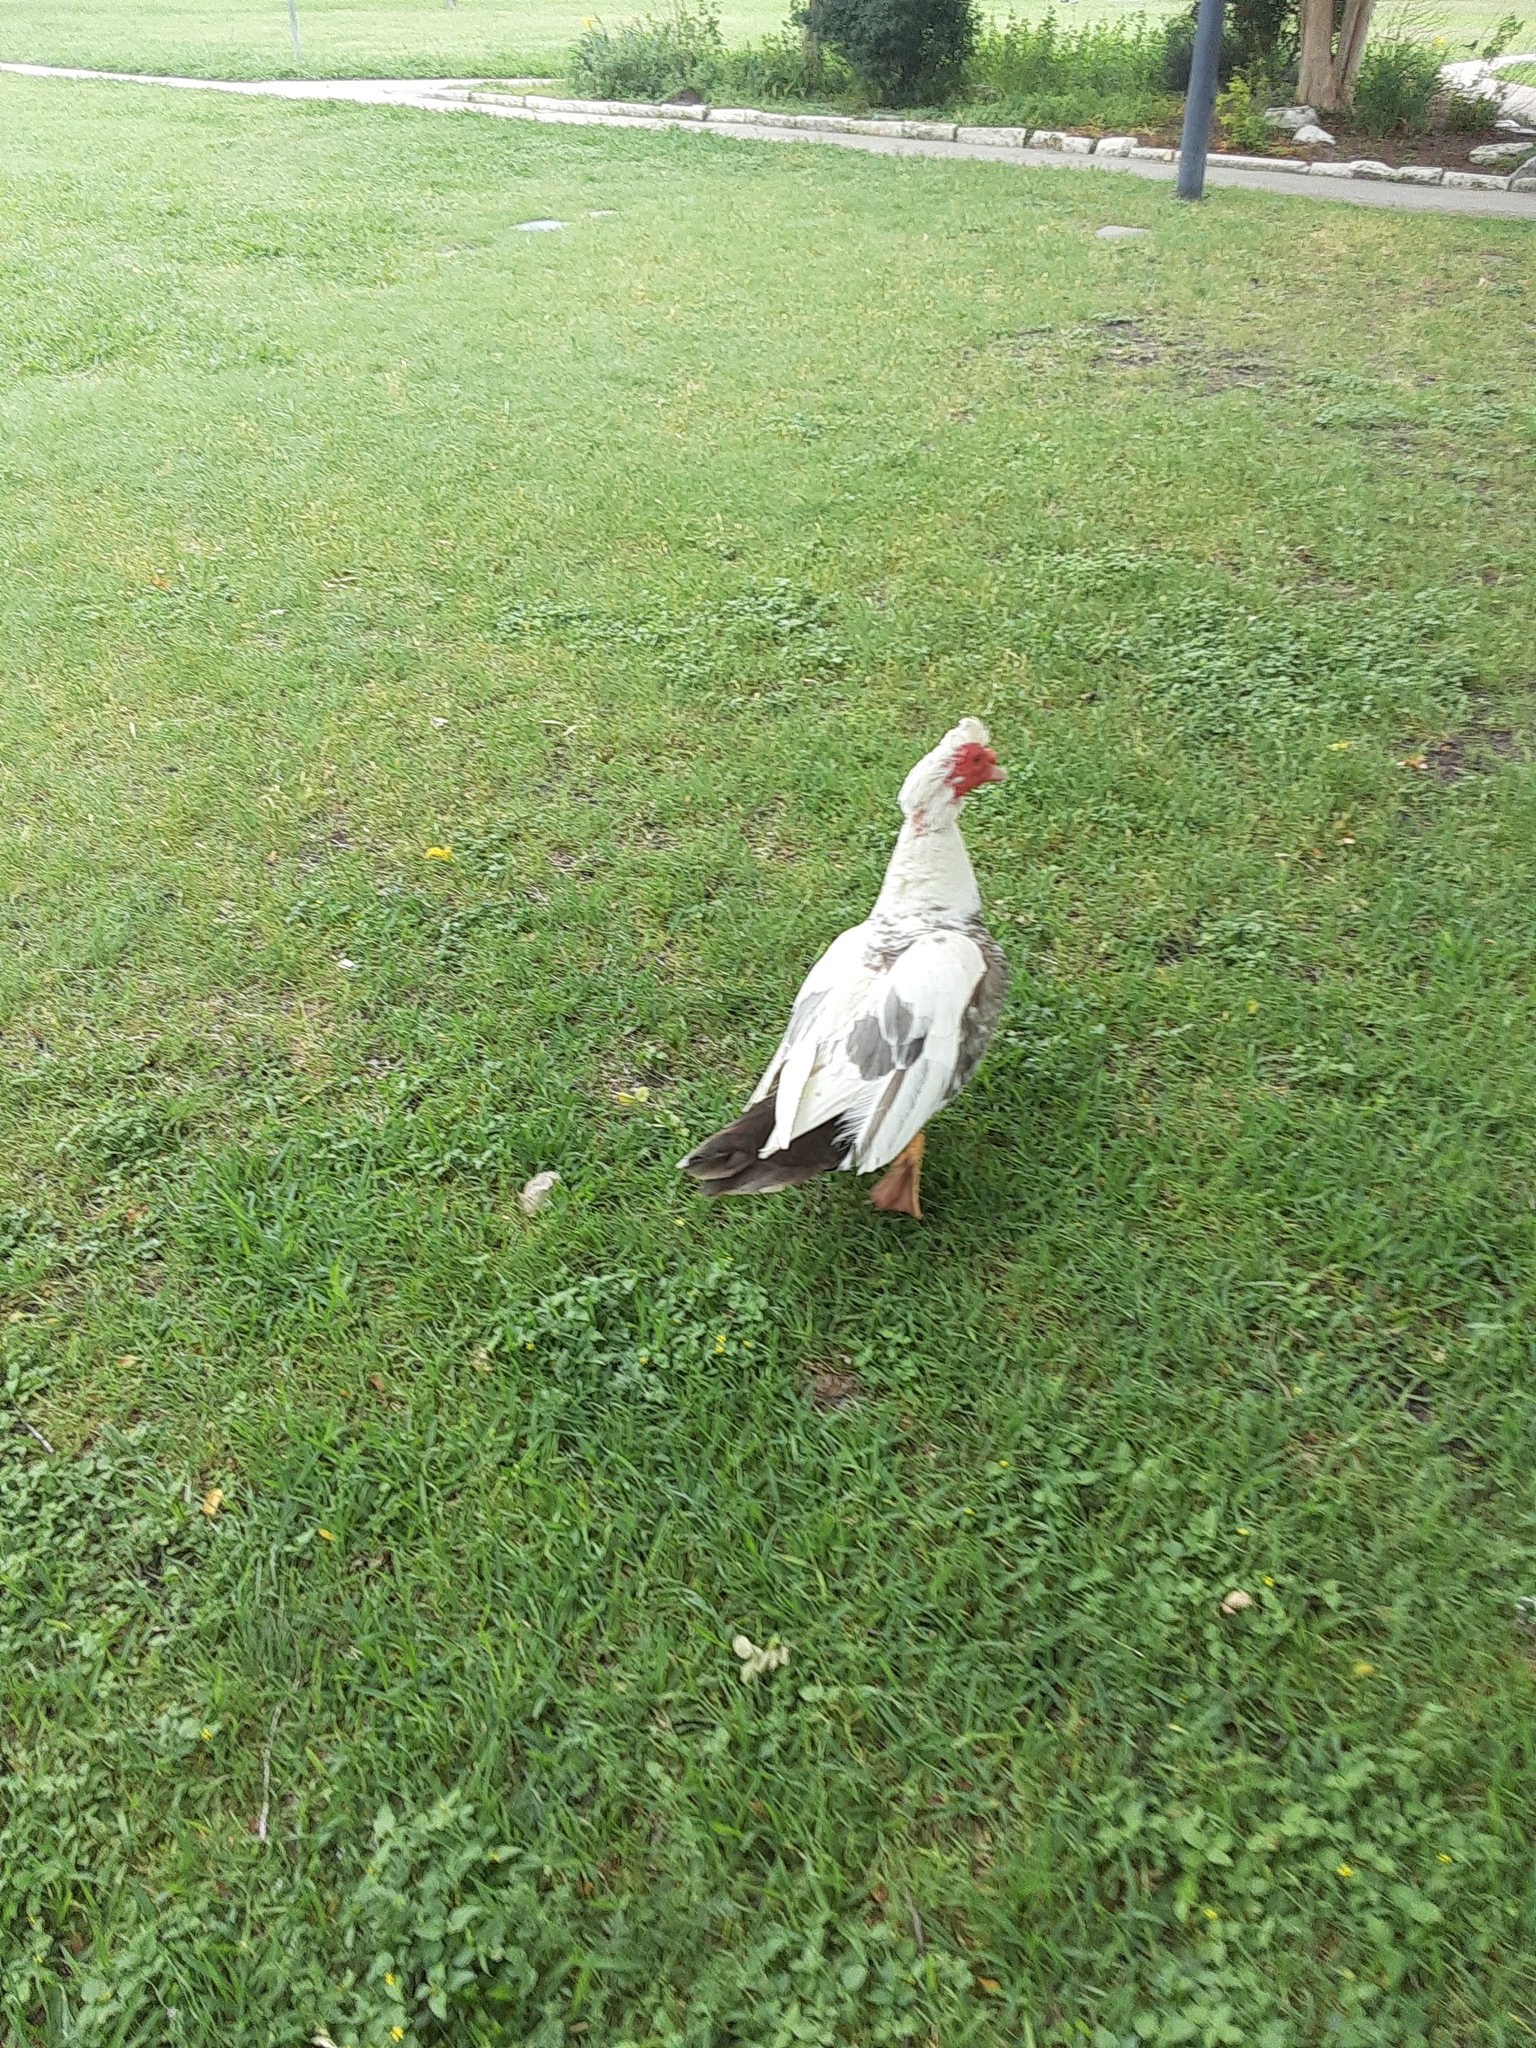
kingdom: Animalia
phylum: Chordata
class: Aves
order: Anseriformes
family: Anatidae
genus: Cairina
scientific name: Cairina moschata
